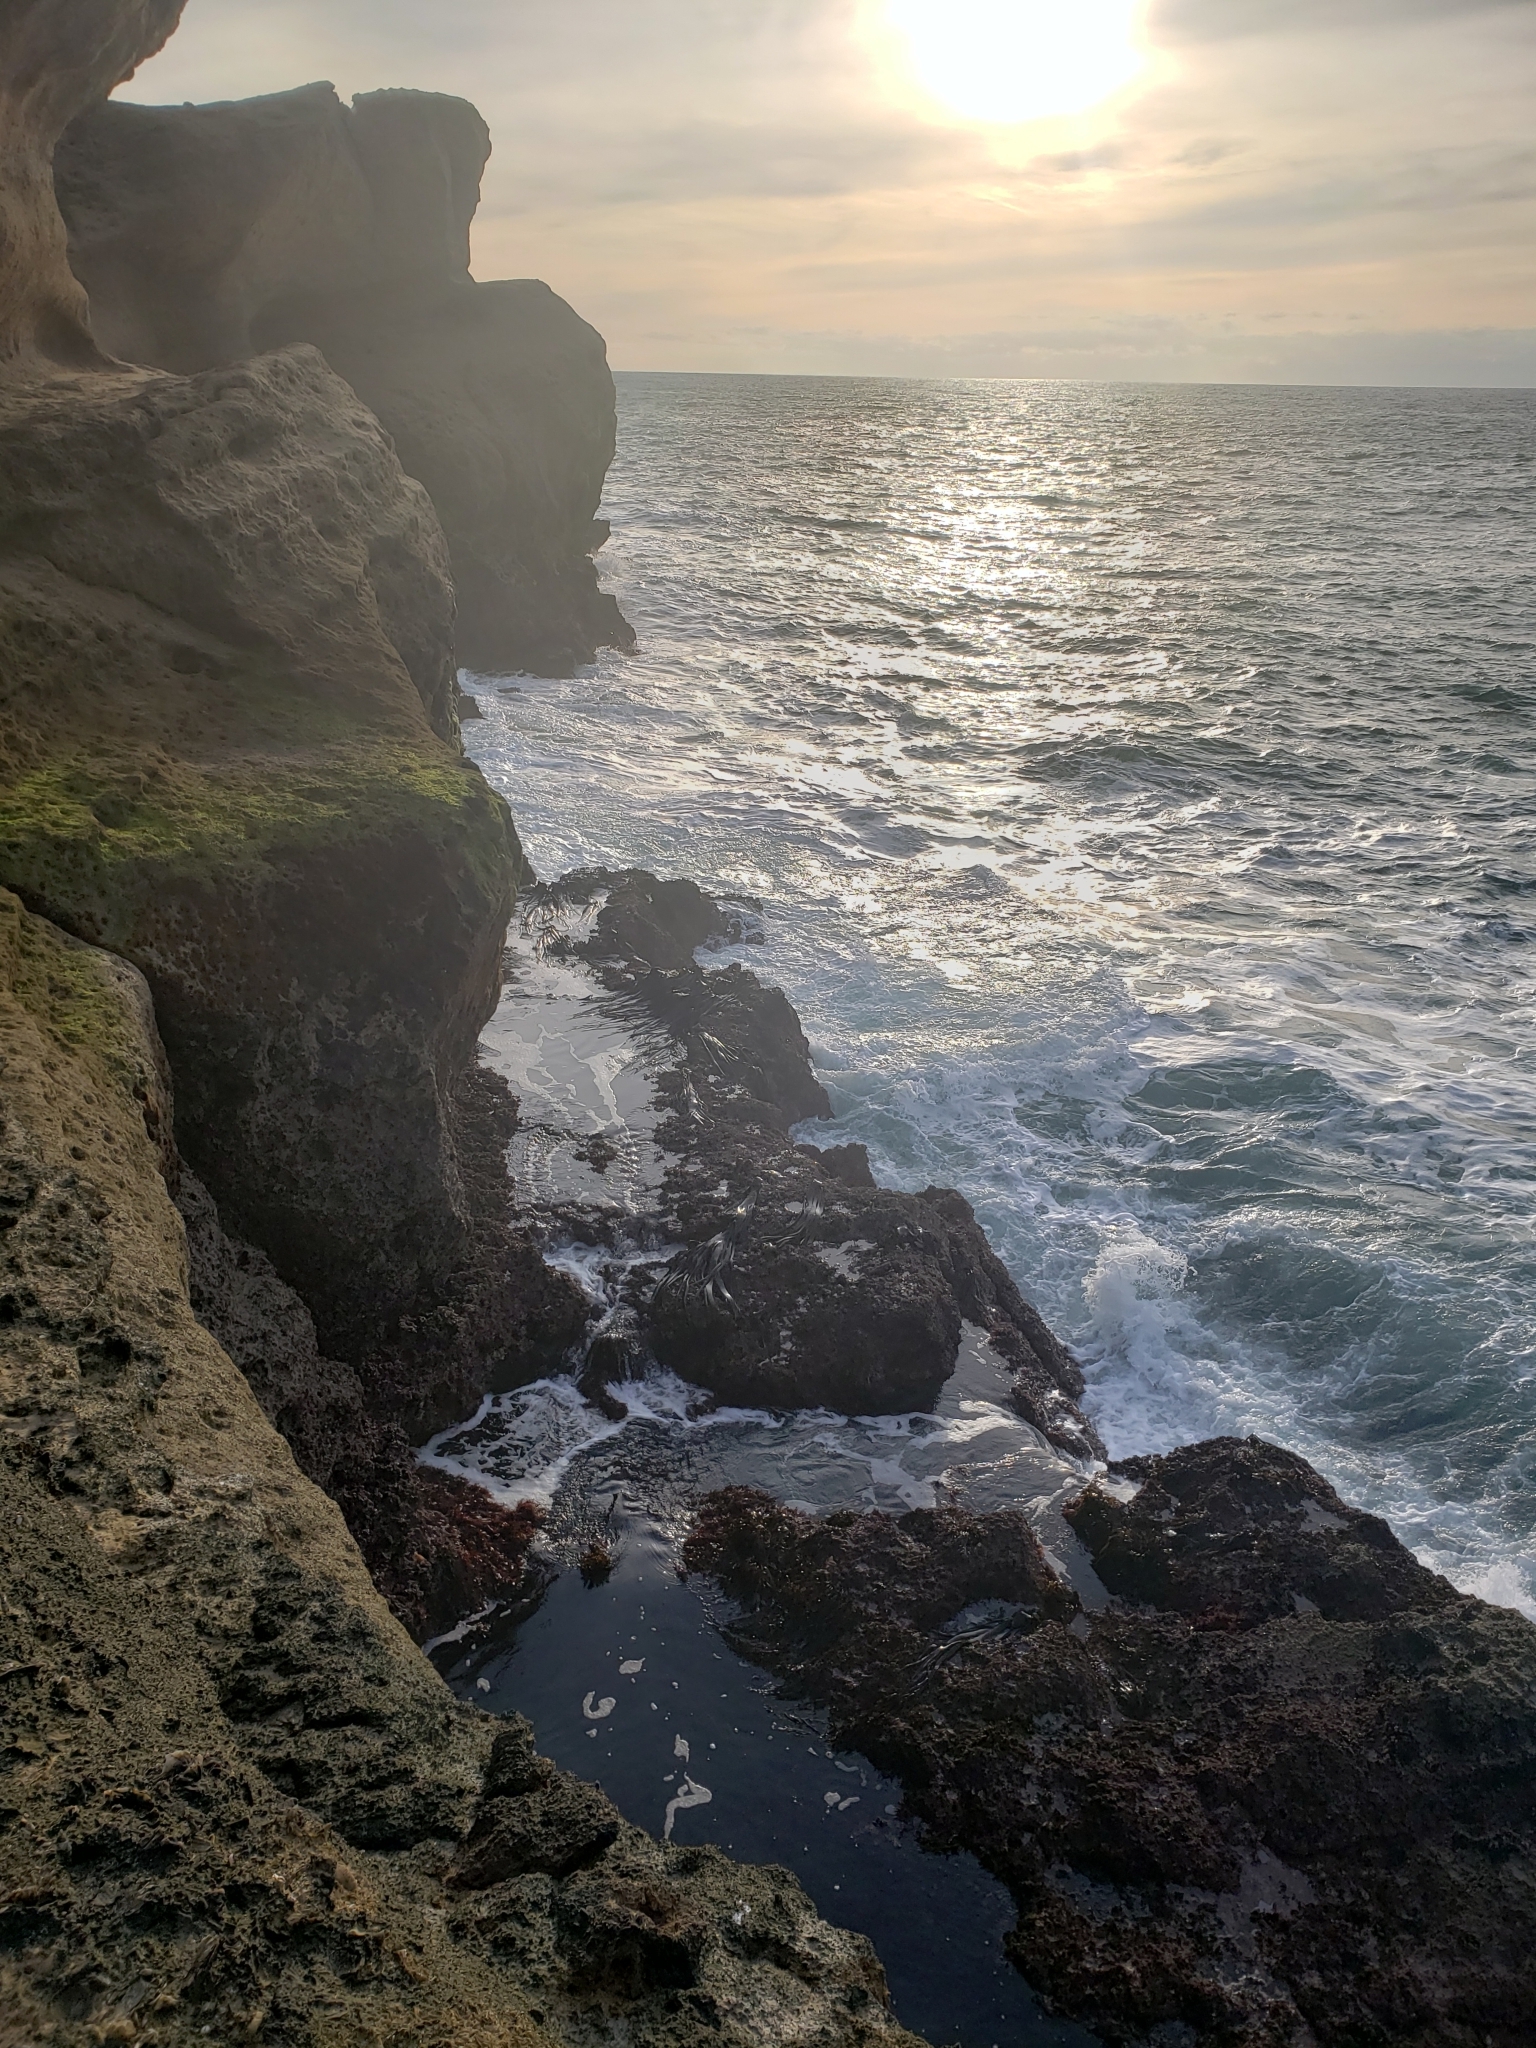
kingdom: Chromista
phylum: Ochrophyta
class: Phaeophyceae
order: Fucales
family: Durvillaeaceae
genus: Durvillaea
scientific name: Durvillaea antarctica
